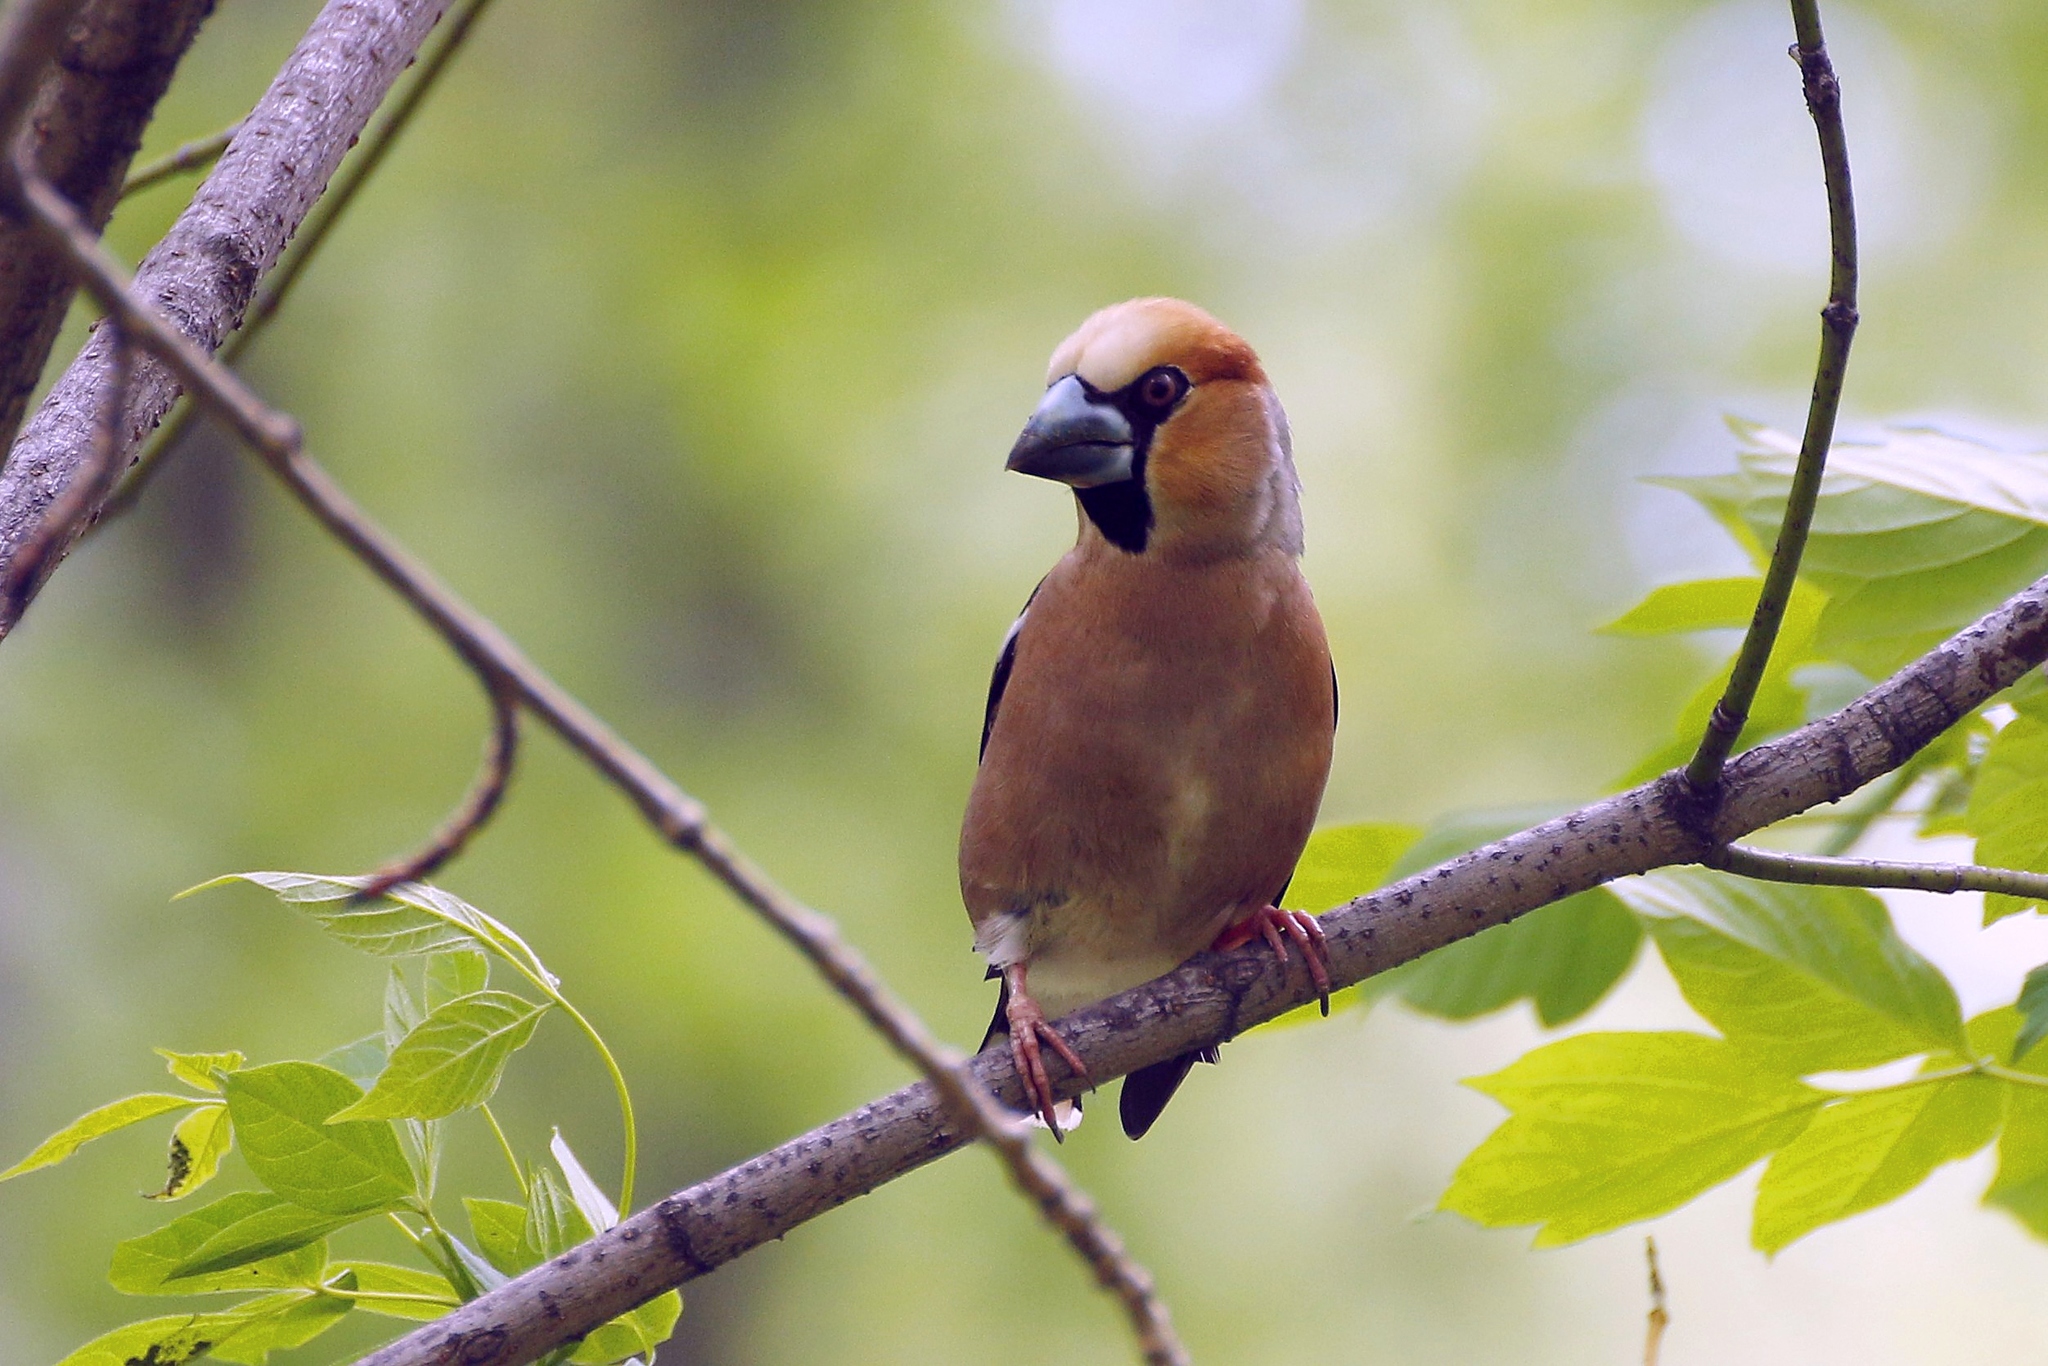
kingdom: Animalia
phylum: Chordata
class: Aves
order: Passeriformes
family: Fringillidae
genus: Coccothraustes
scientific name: Coccothraustes coccothraustes
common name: Hawfinch
